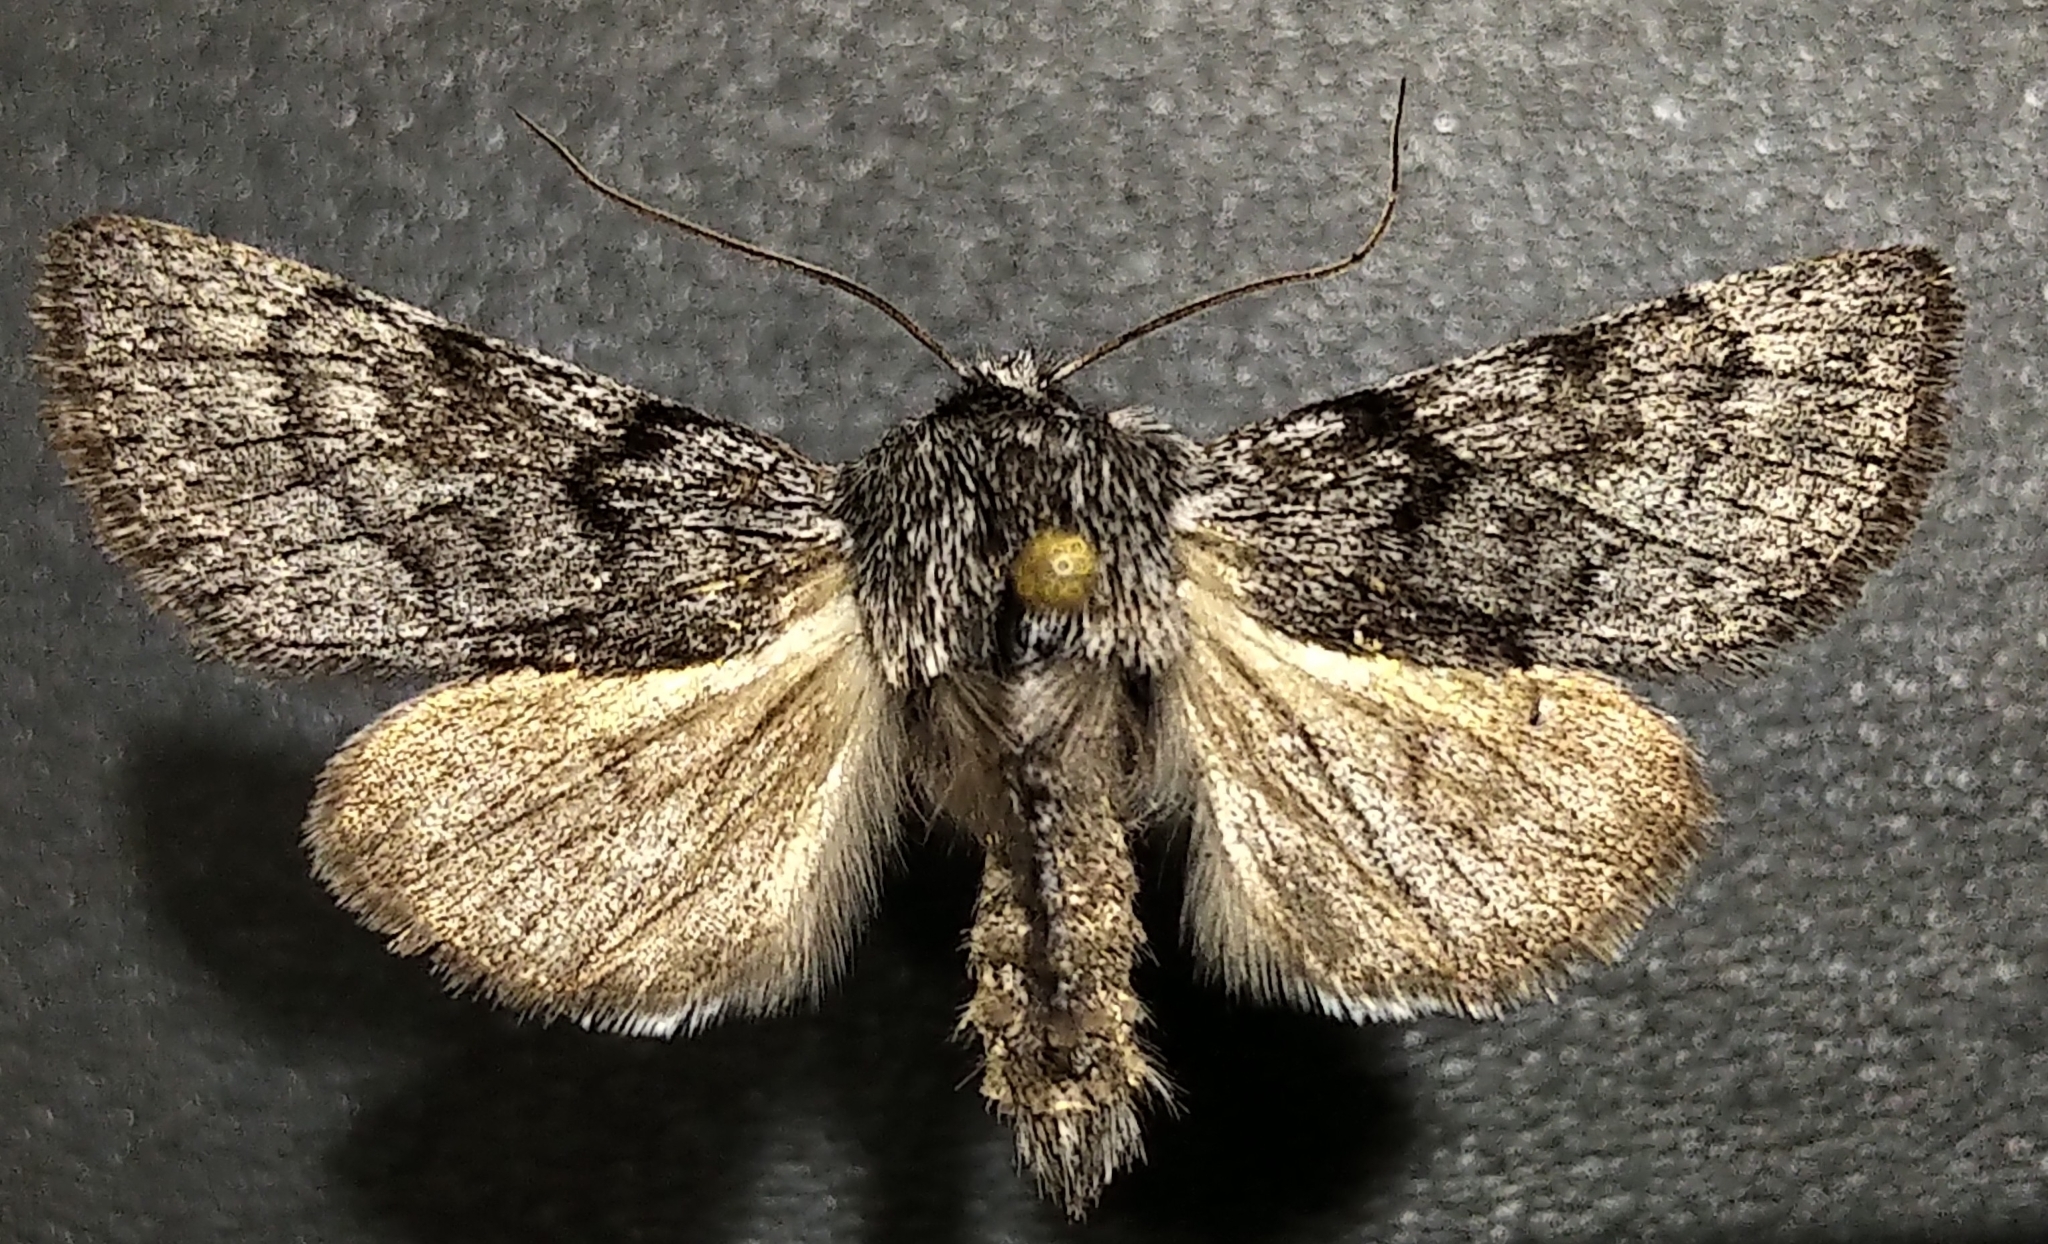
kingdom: Animalia
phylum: Arthropoda
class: Insecta
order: Lepidoptera
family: Noctuidae
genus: Pleromelloida
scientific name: Pleromelloida conserta
